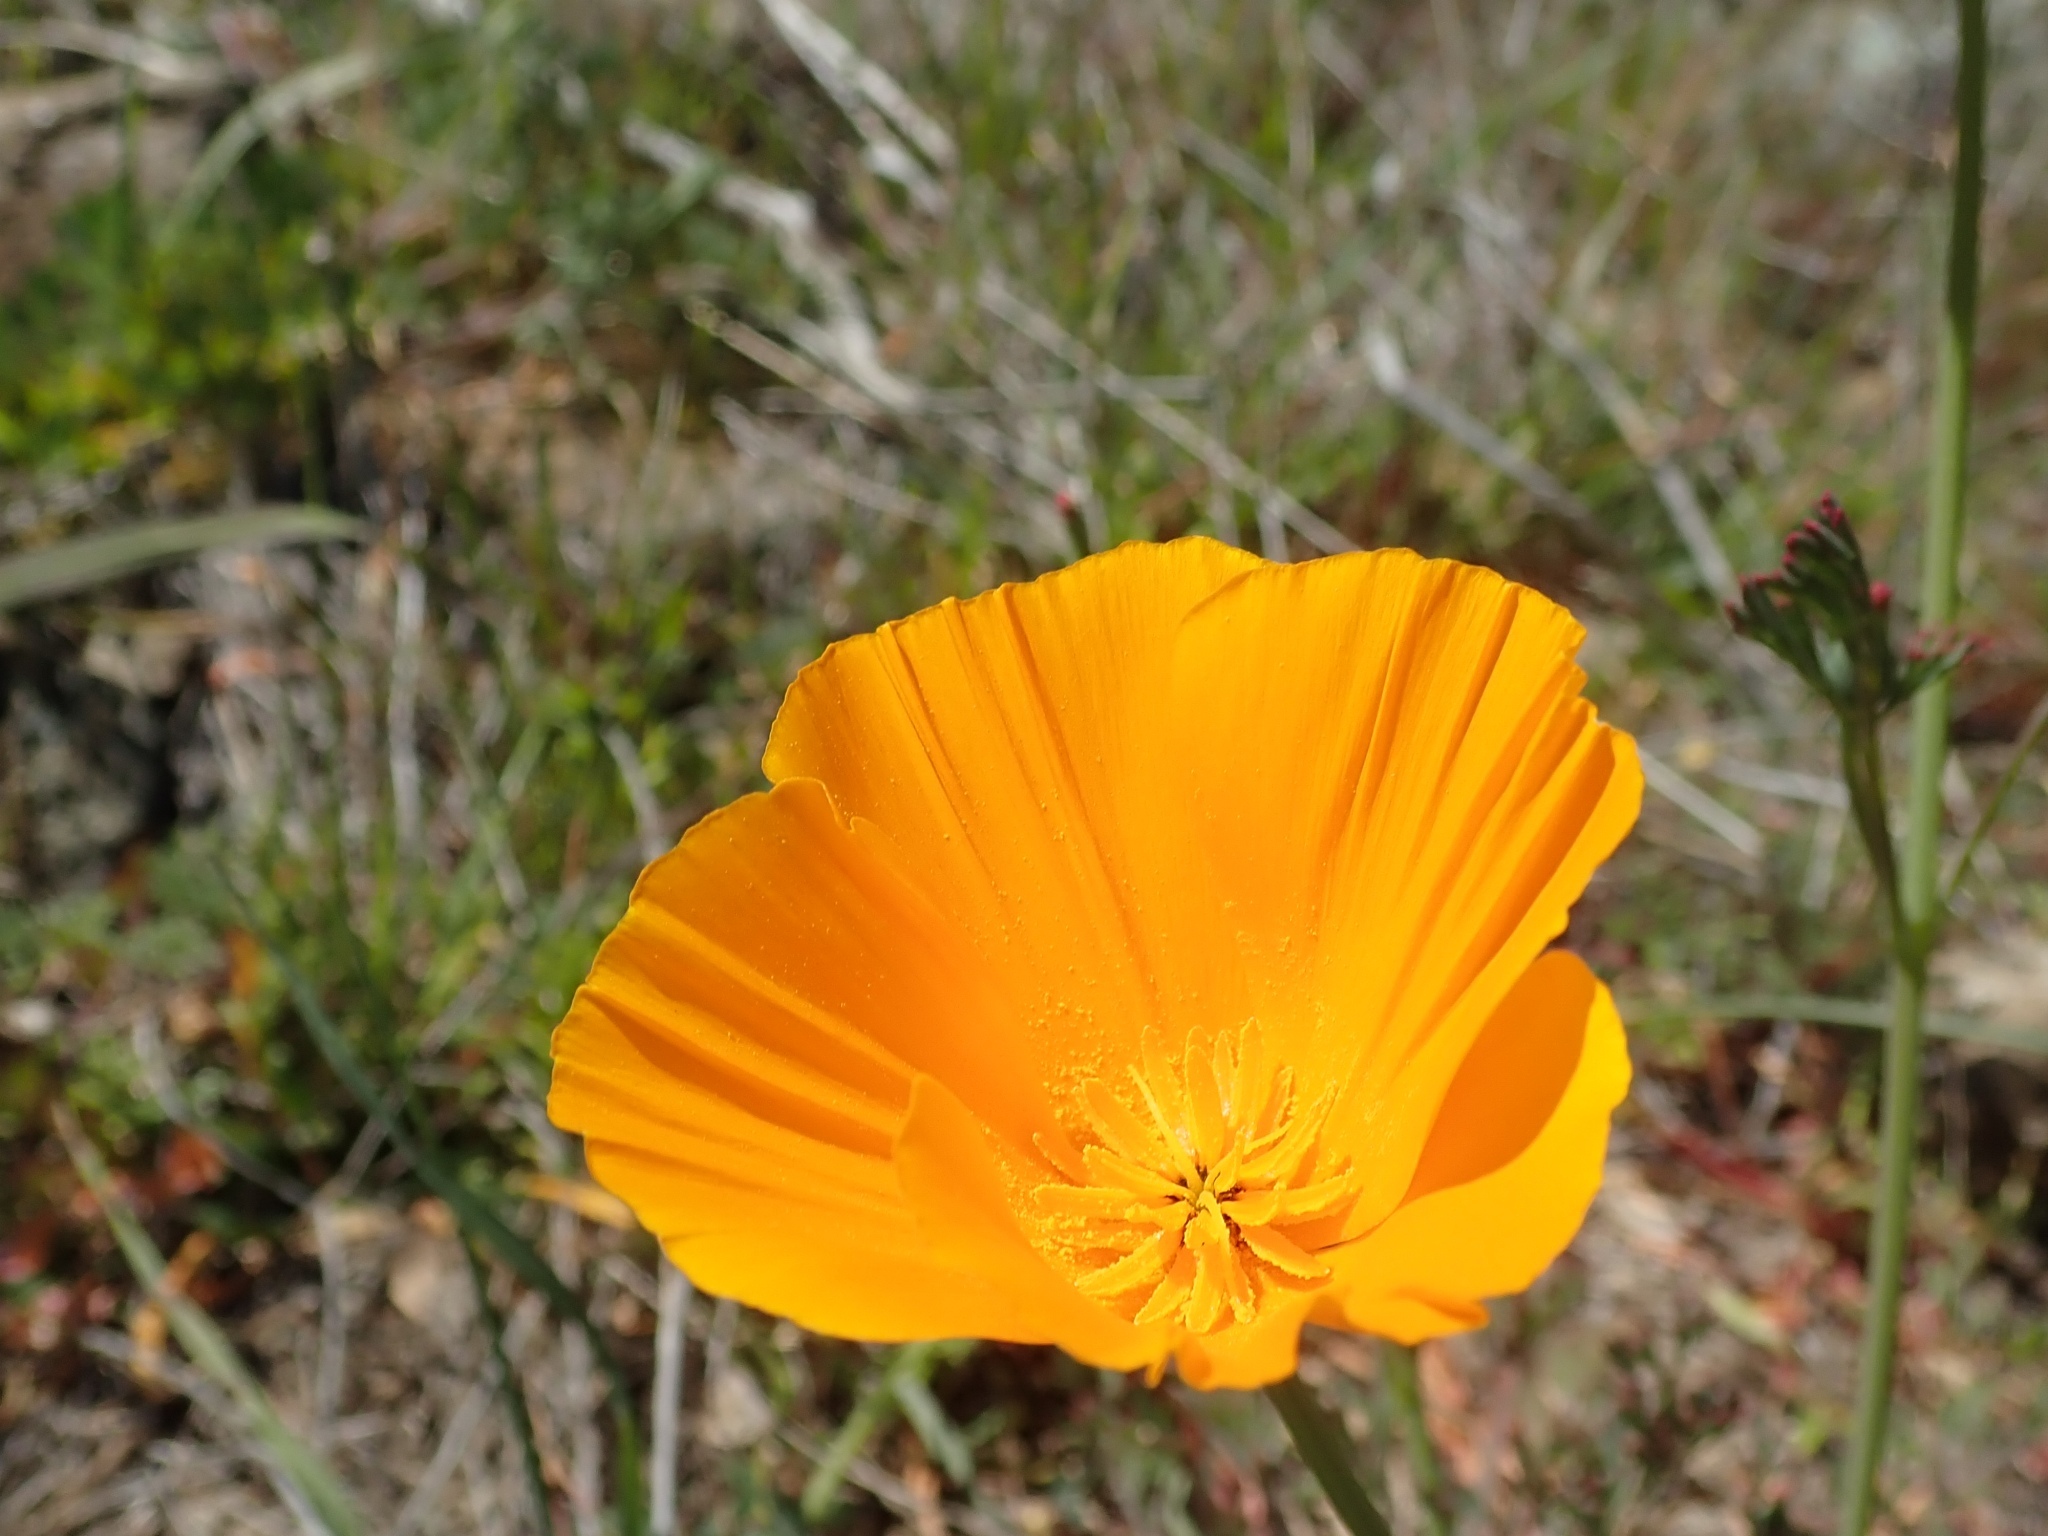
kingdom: Plantae
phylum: Tracheophyta
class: Magnoliopsida
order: Ranunculales
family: Papaveraceae
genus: Eschscholzia
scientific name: Eschscholzia californica
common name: California poppy
